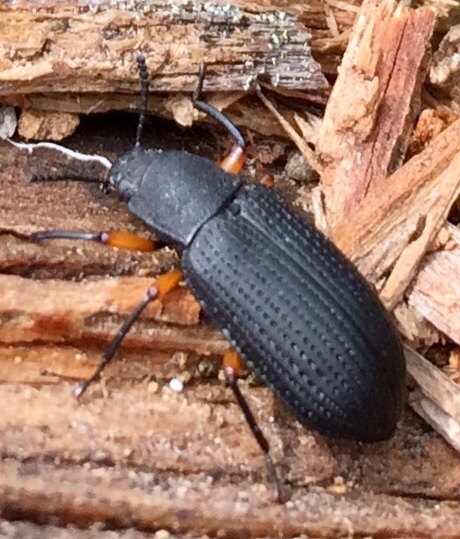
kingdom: Animalia
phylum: Arthropoda
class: Insecta
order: Coleoptera
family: Tenebrionidae
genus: Haplandrus
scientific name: Haplandrus fulvipes
